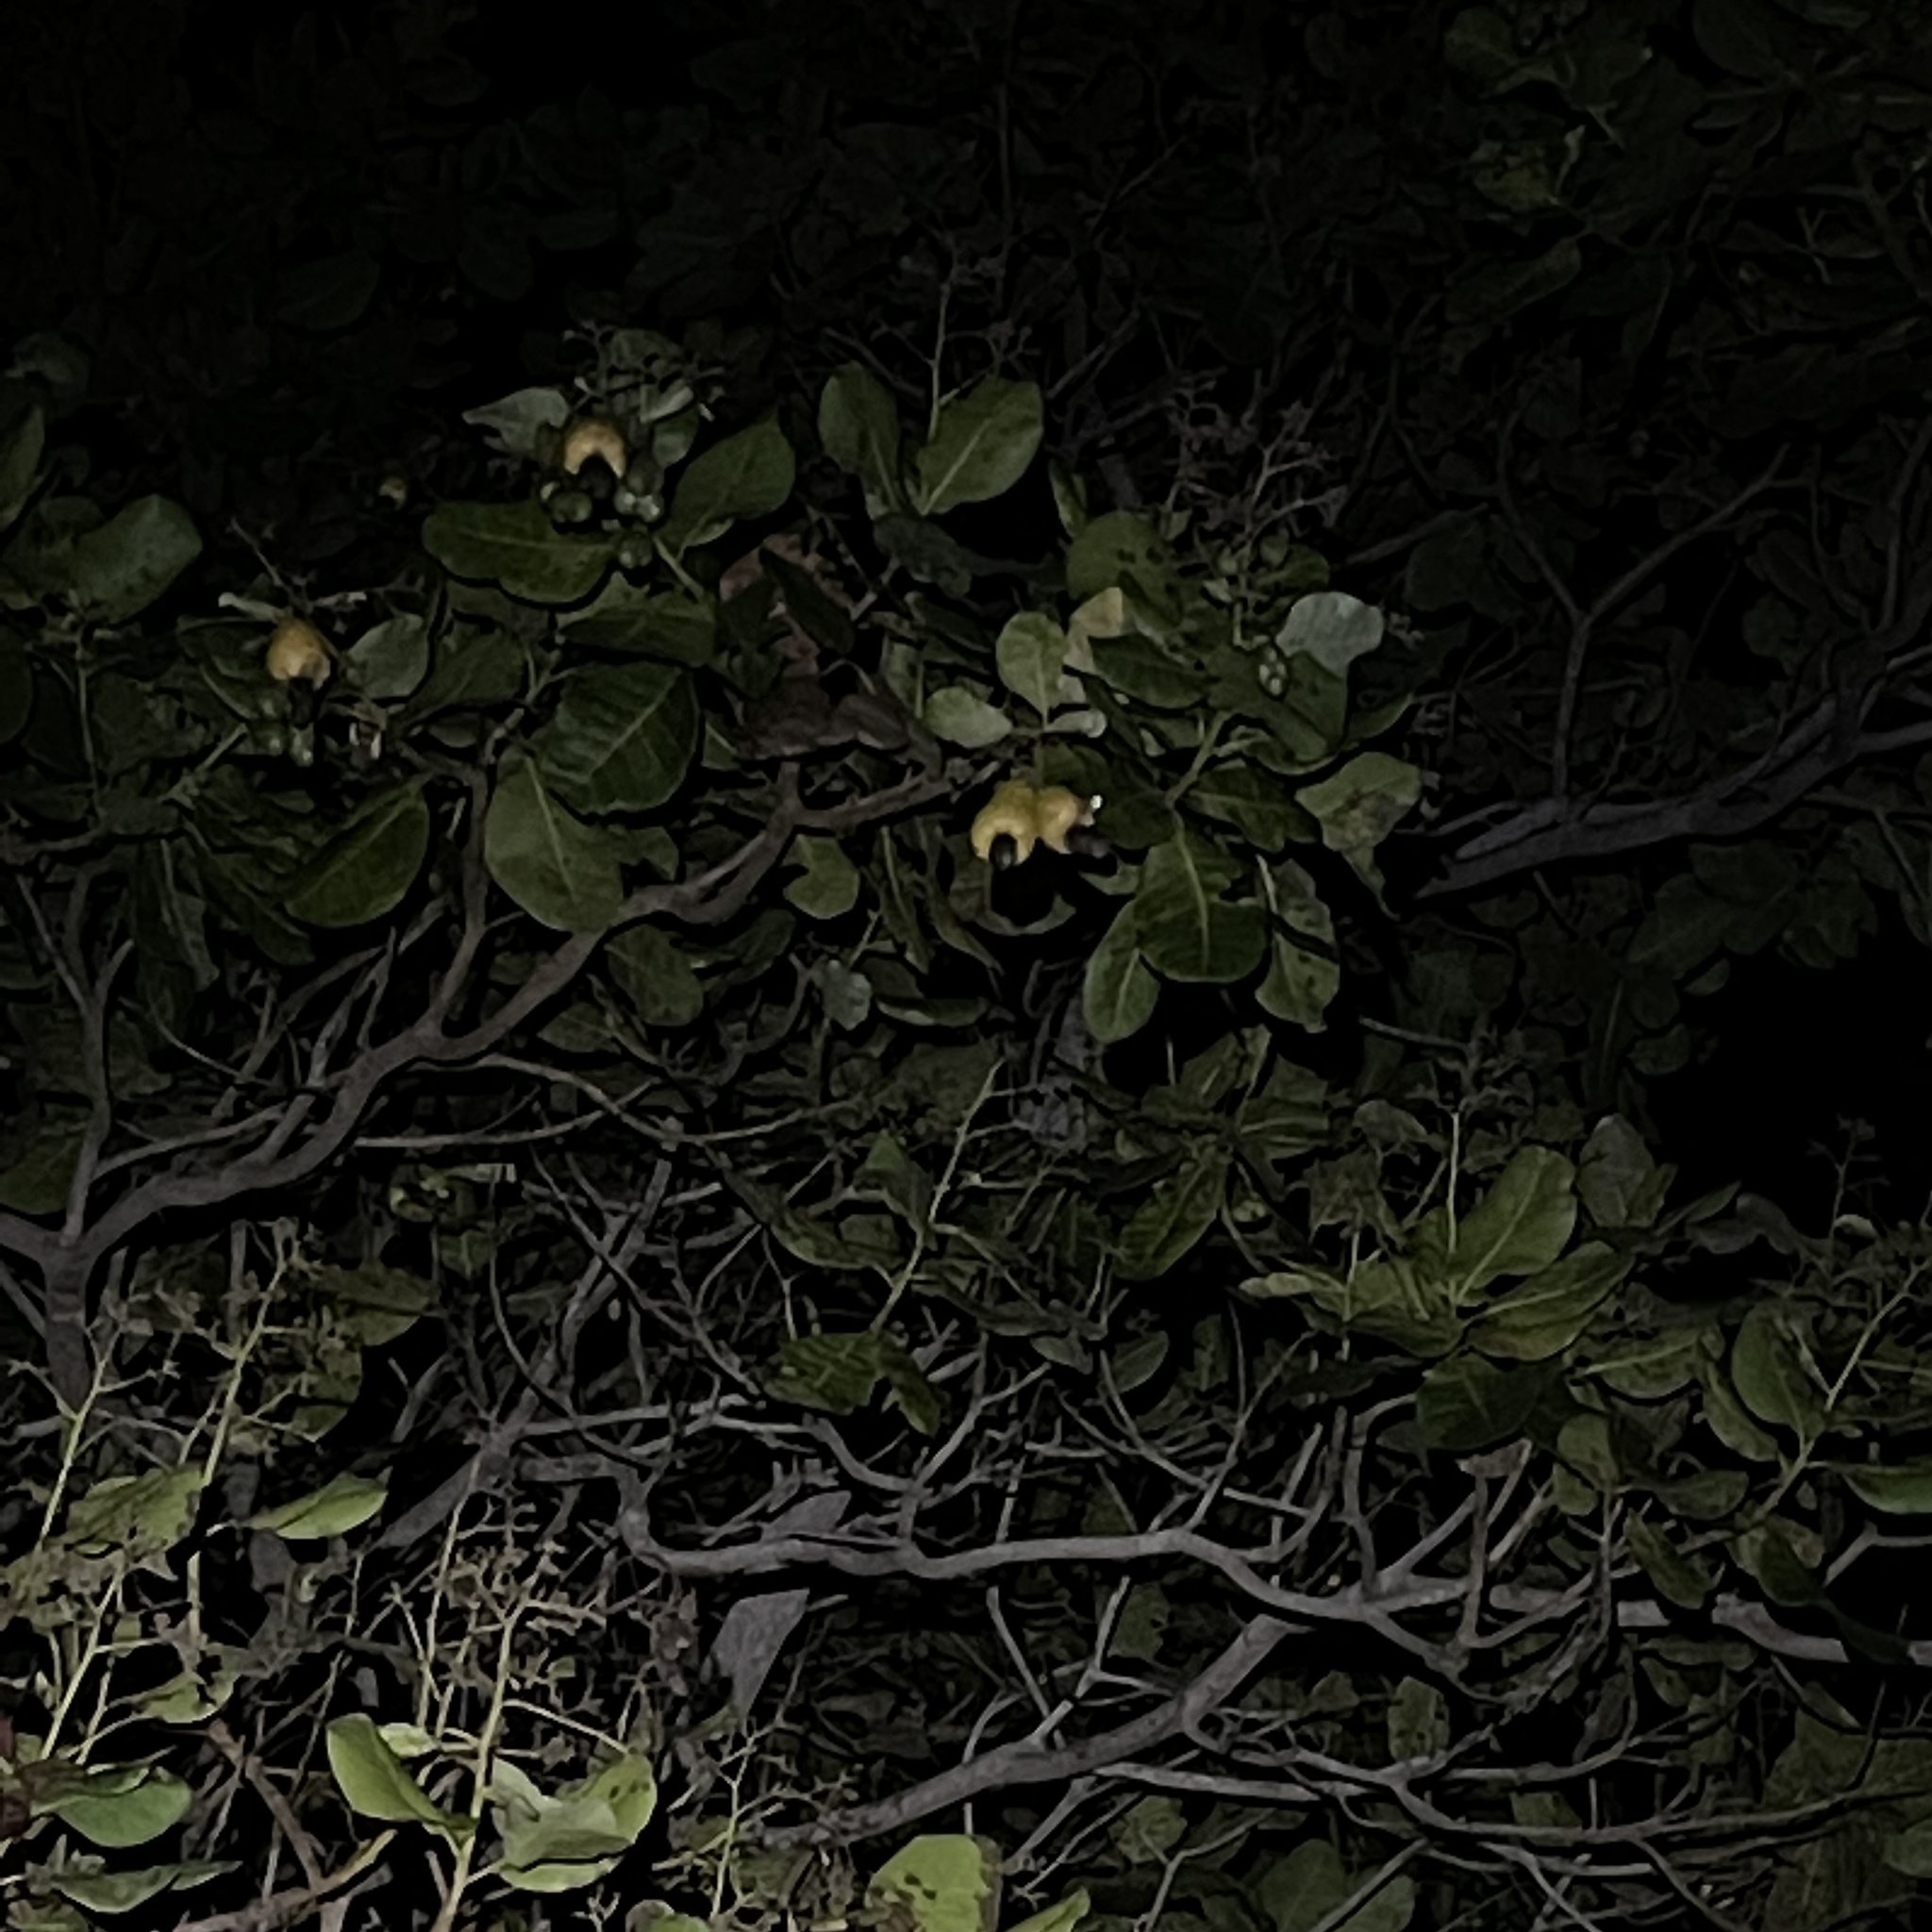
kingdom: Plantae
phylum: Tracheophyta
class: Magnoliopsida
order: Sapindales
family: Anacardiaceae
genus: Anacardium
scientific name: Anacardium occidentale
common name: Cashew
